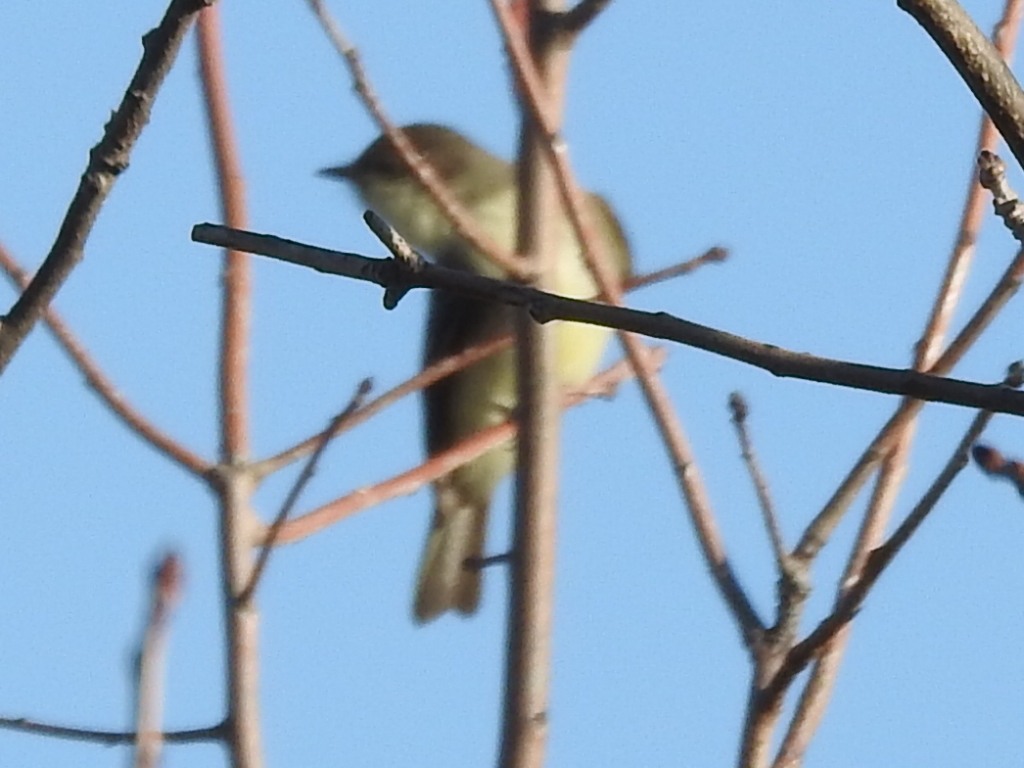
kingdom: Animalia
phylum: Chordata
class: Aves
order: Passeriformes
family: Tyrannidae
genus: Sayornis
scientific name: Sayornis phoebe
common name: Eastern phoebe
